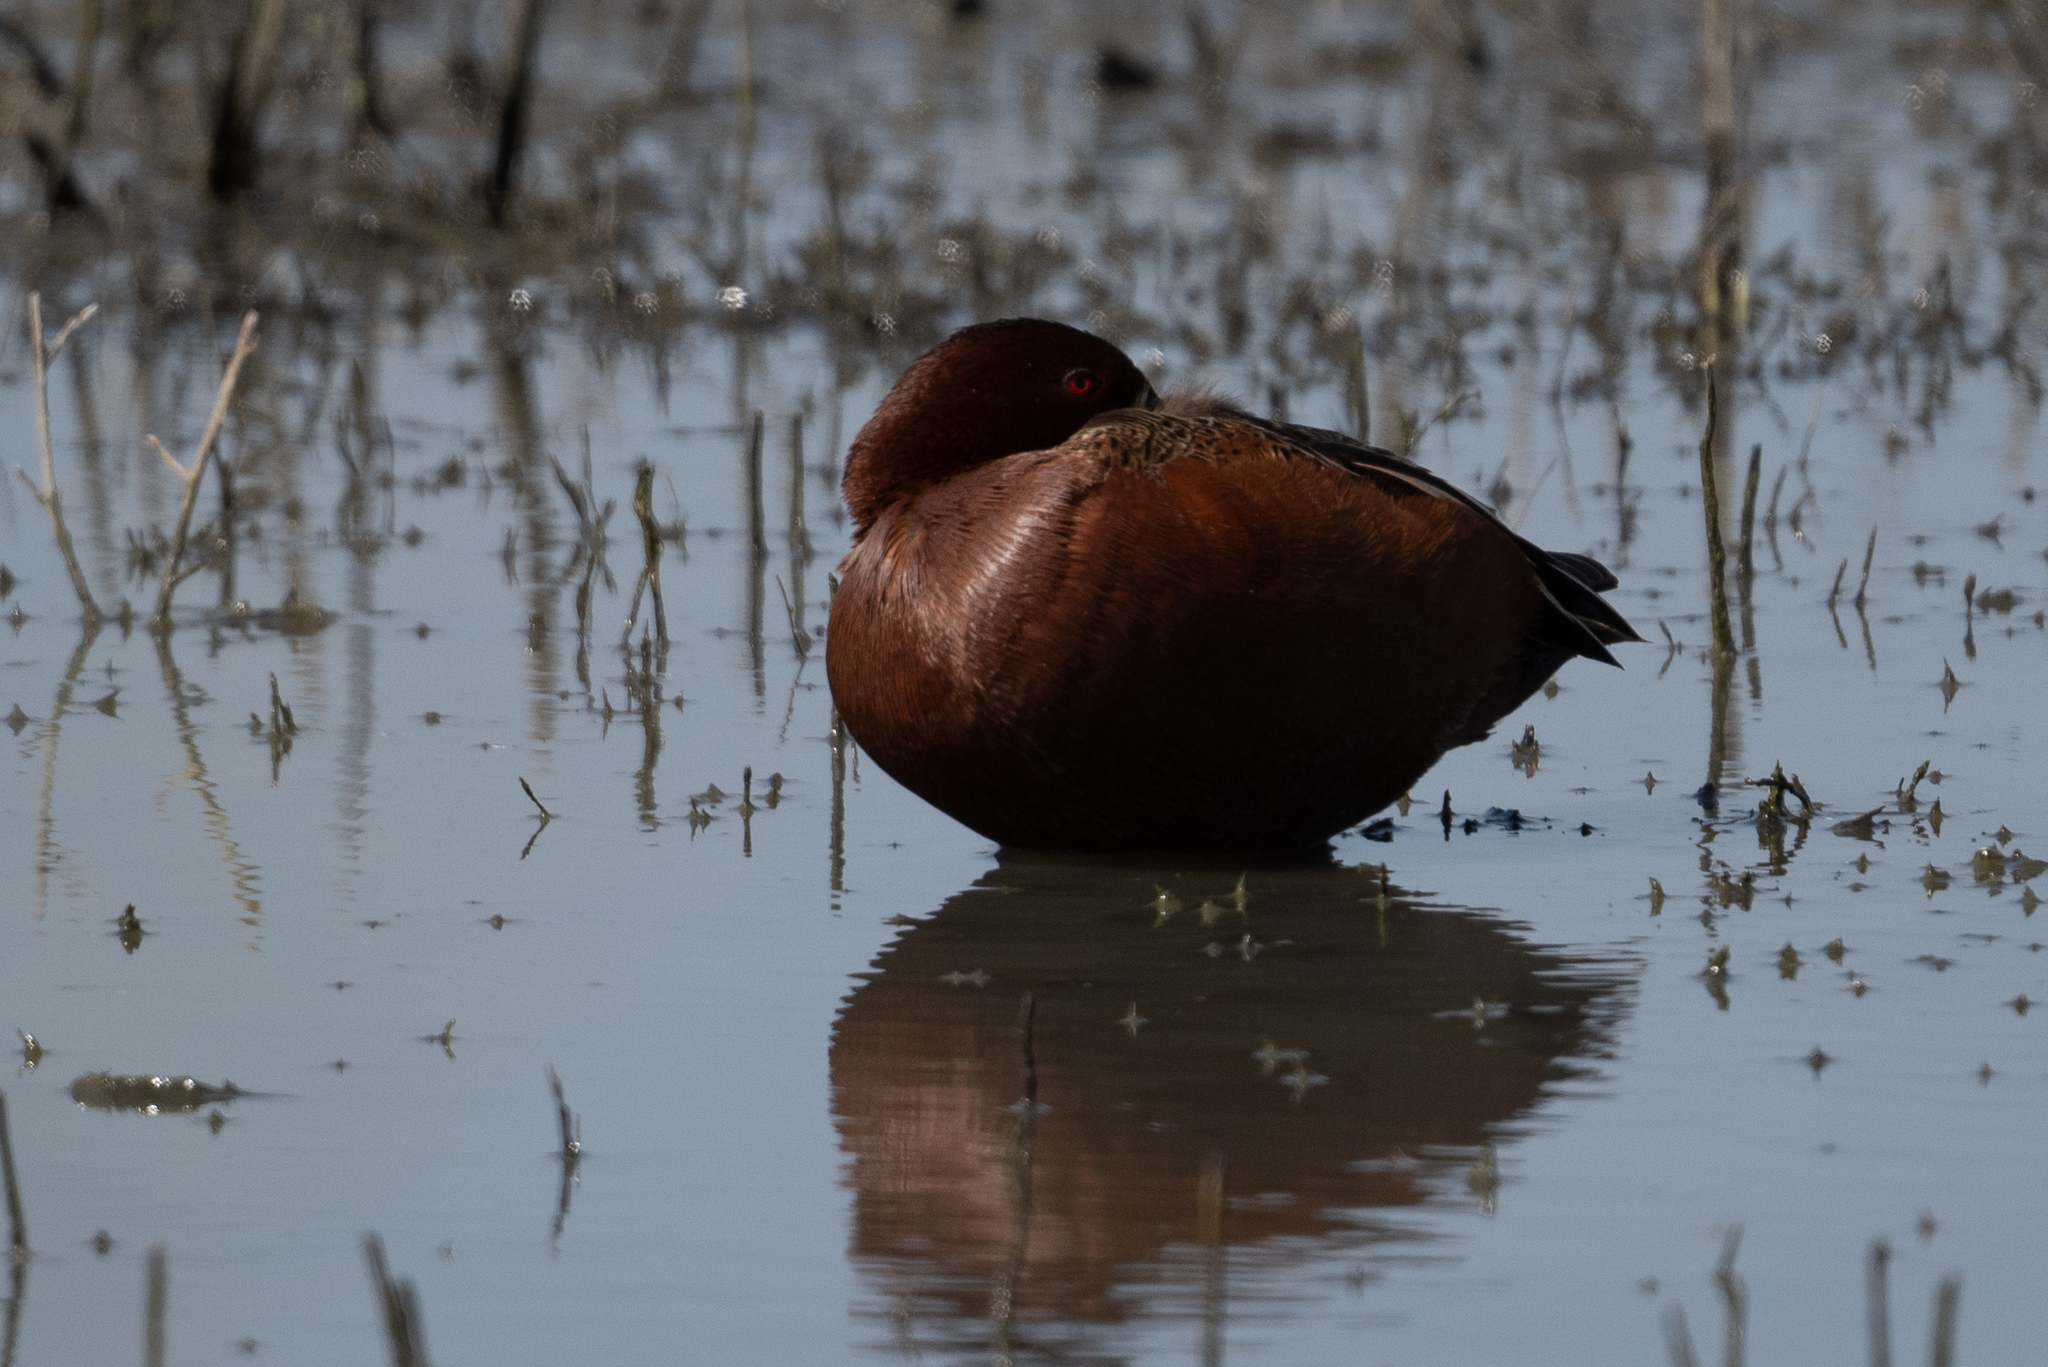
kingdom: Animalia
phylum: Chordata
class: Aves
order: Anseriformes
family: Anatidae
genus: Spatula
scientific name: Spatula cyanoptera
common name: Cinnamon teal
